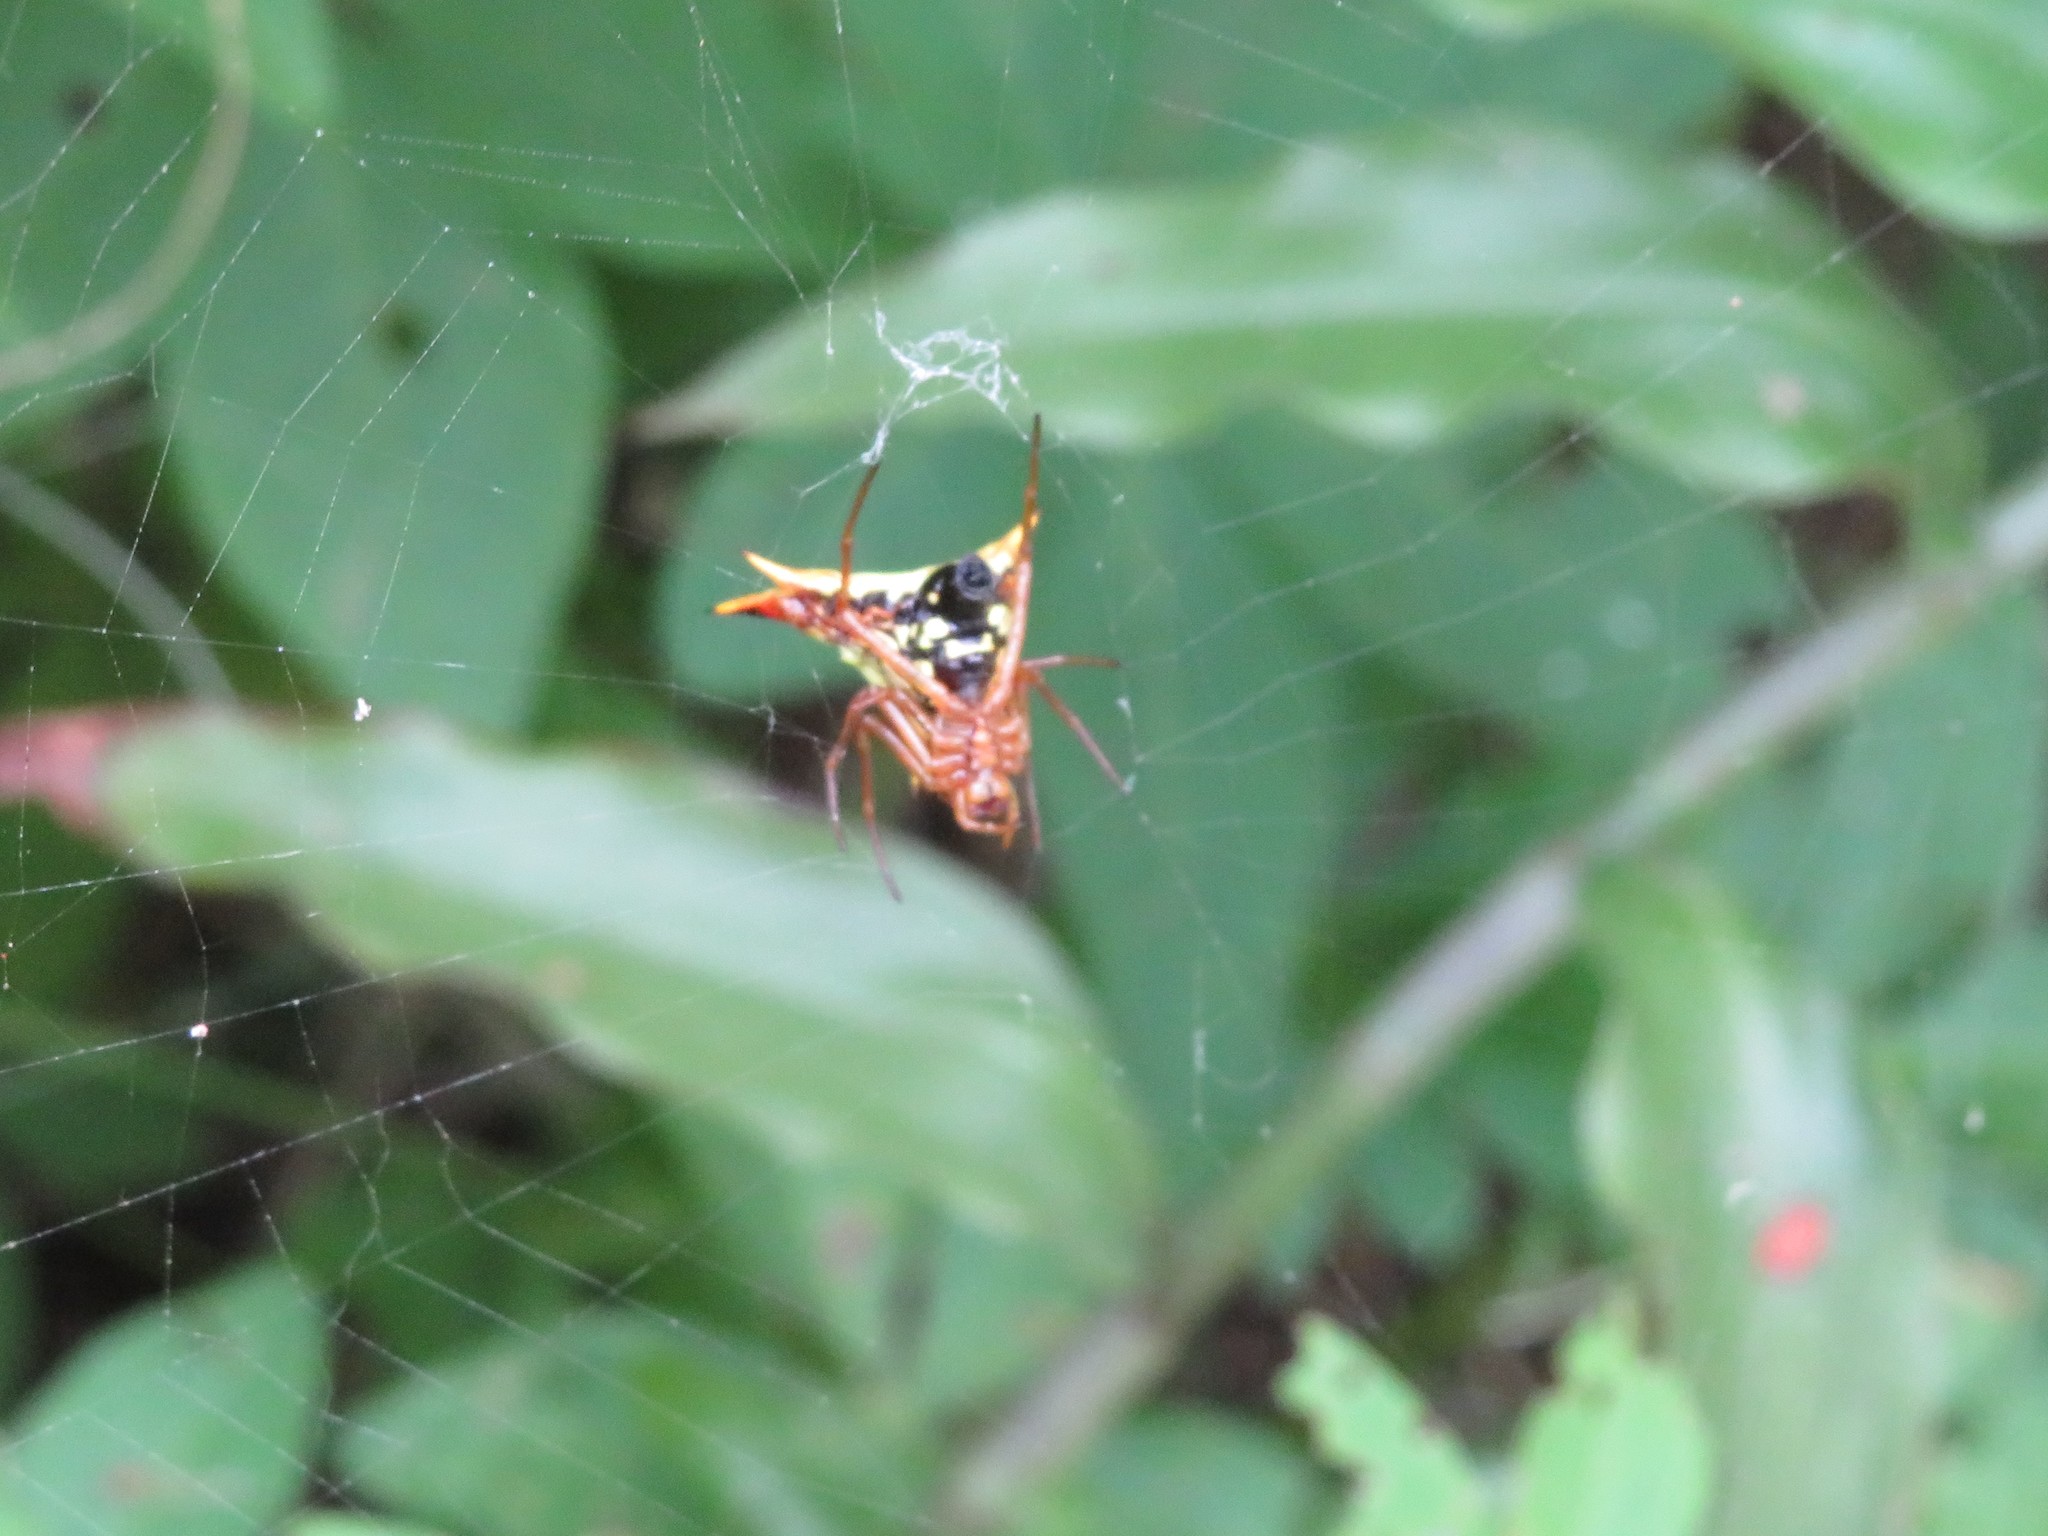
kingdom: Animalia
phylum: Arthropoda
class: Arachnida
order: Araneae
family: Araneidae
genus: Micrathena
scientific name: Micrathena furcata
